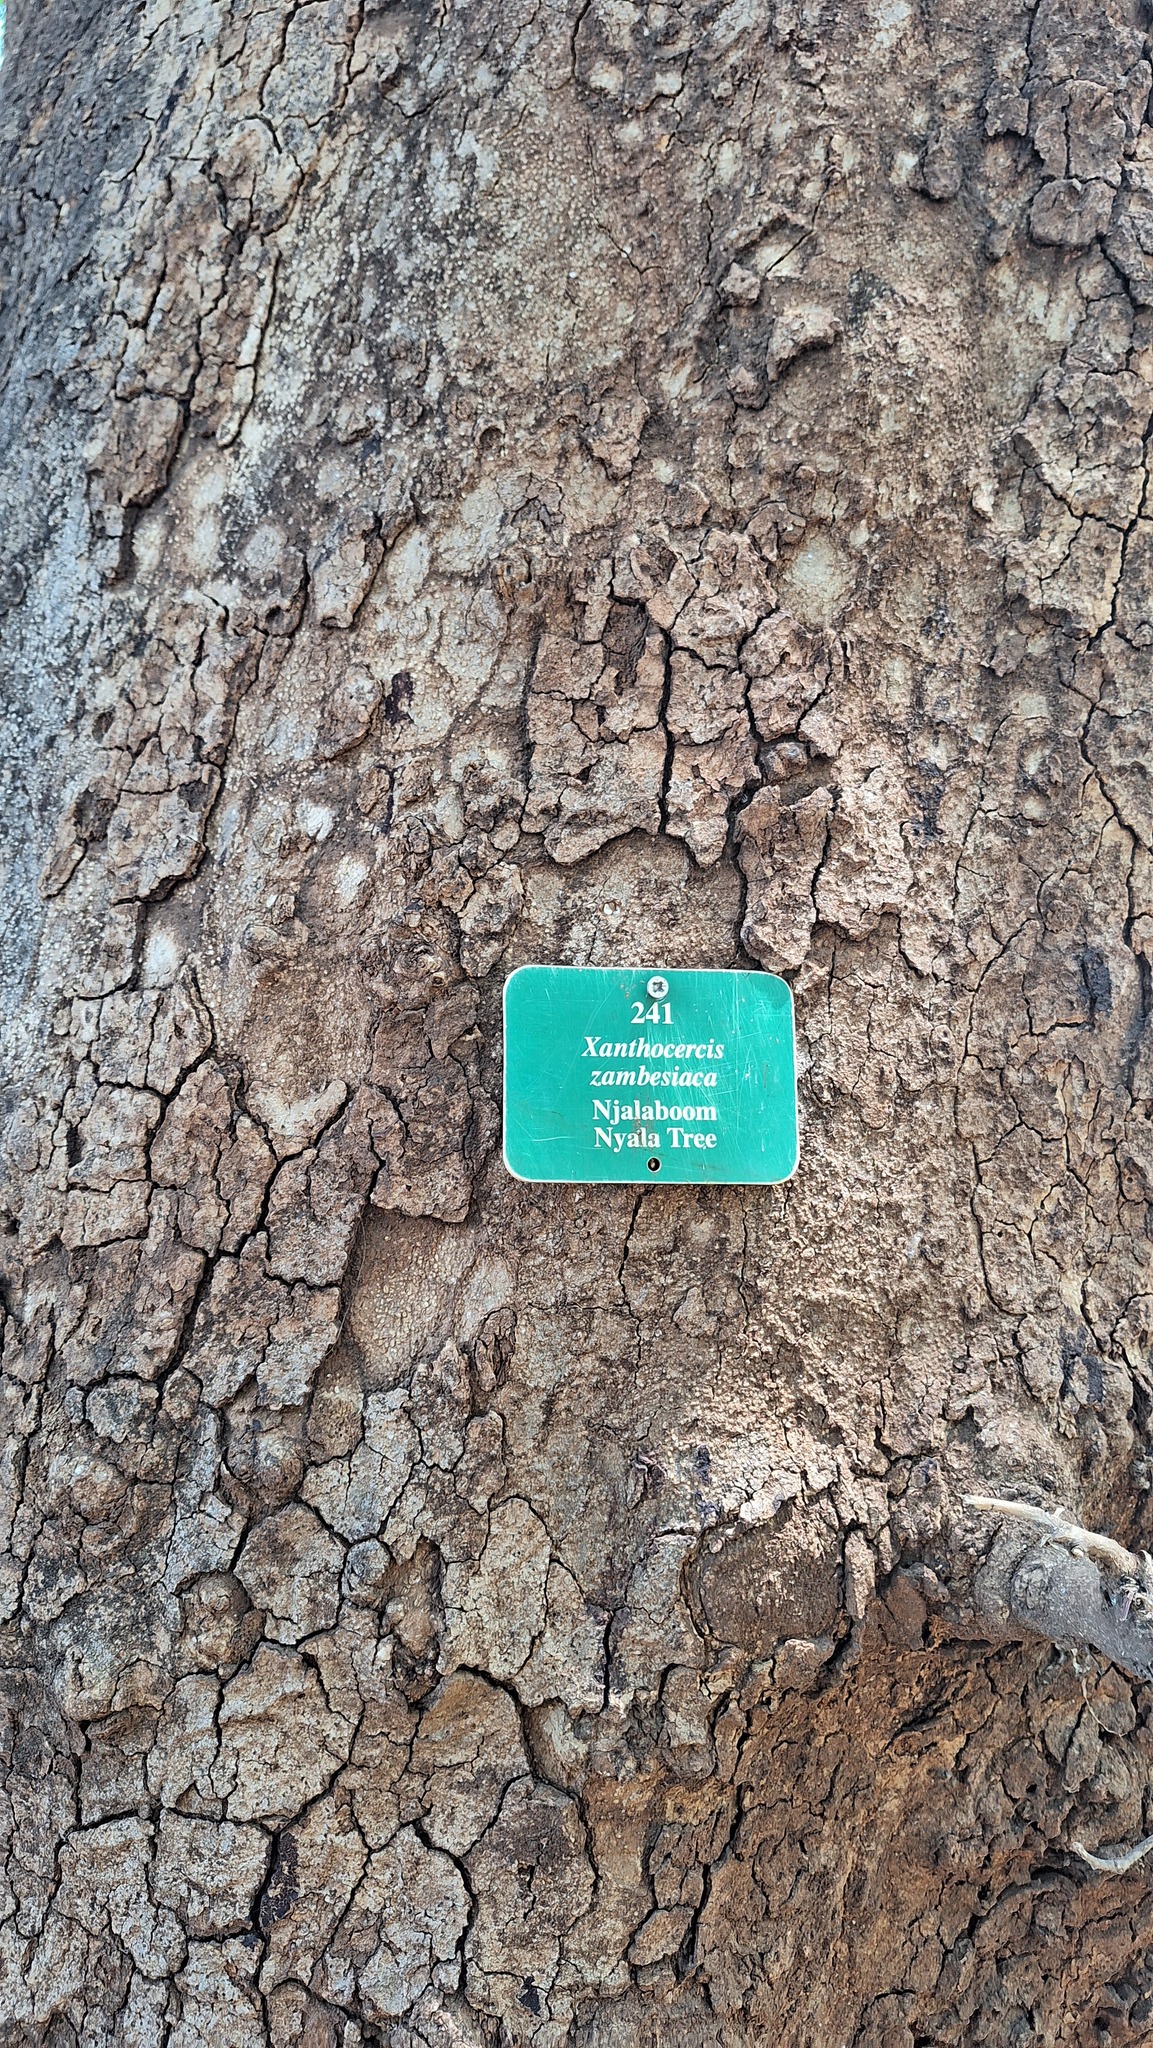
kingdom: Plantae
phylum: Tracheophyta
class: Magnoliopsida
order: Fabales
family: Fabaceae
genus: Xanthocercis
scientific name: Xanthocercis zambesiaca
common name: Nyala-tree
